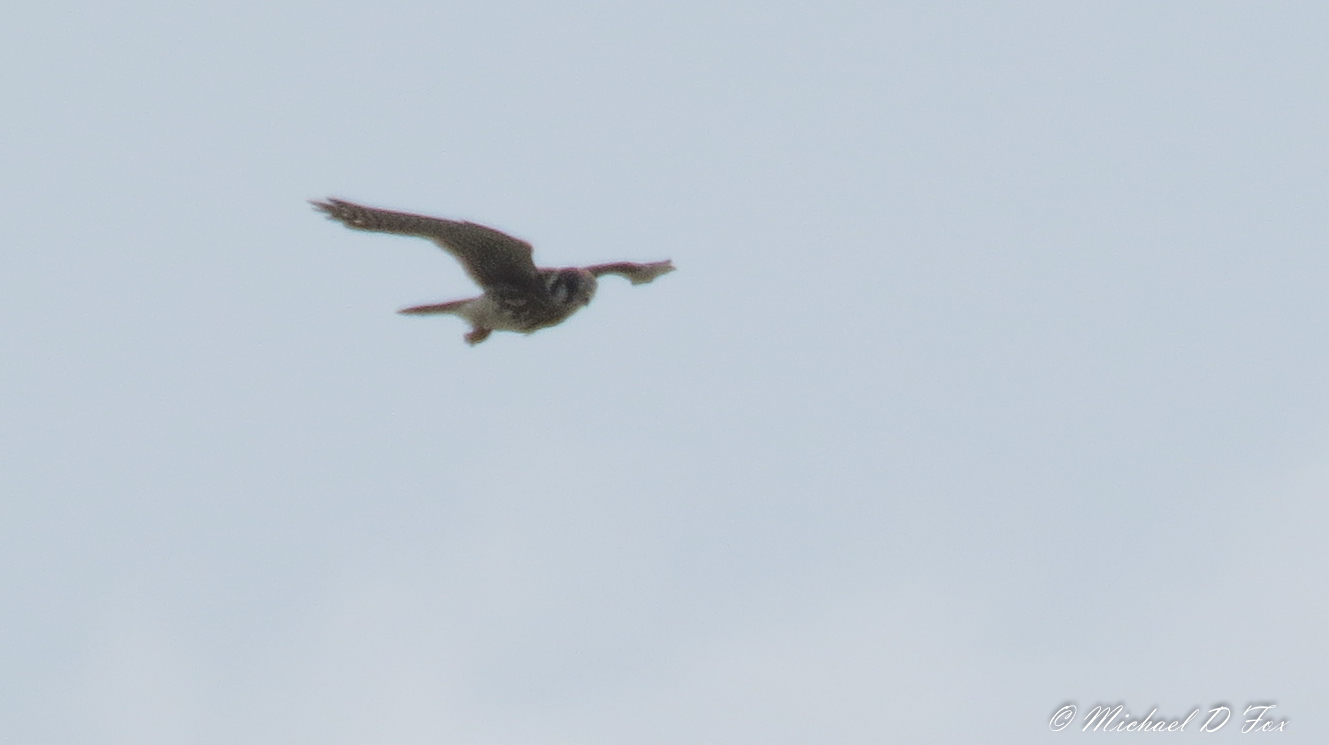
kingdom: Animalia
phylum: Chordata
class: Aves
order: Falconiformes
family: Falconidae
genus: Falco
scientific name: Falco sparverius
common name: American kestrel
